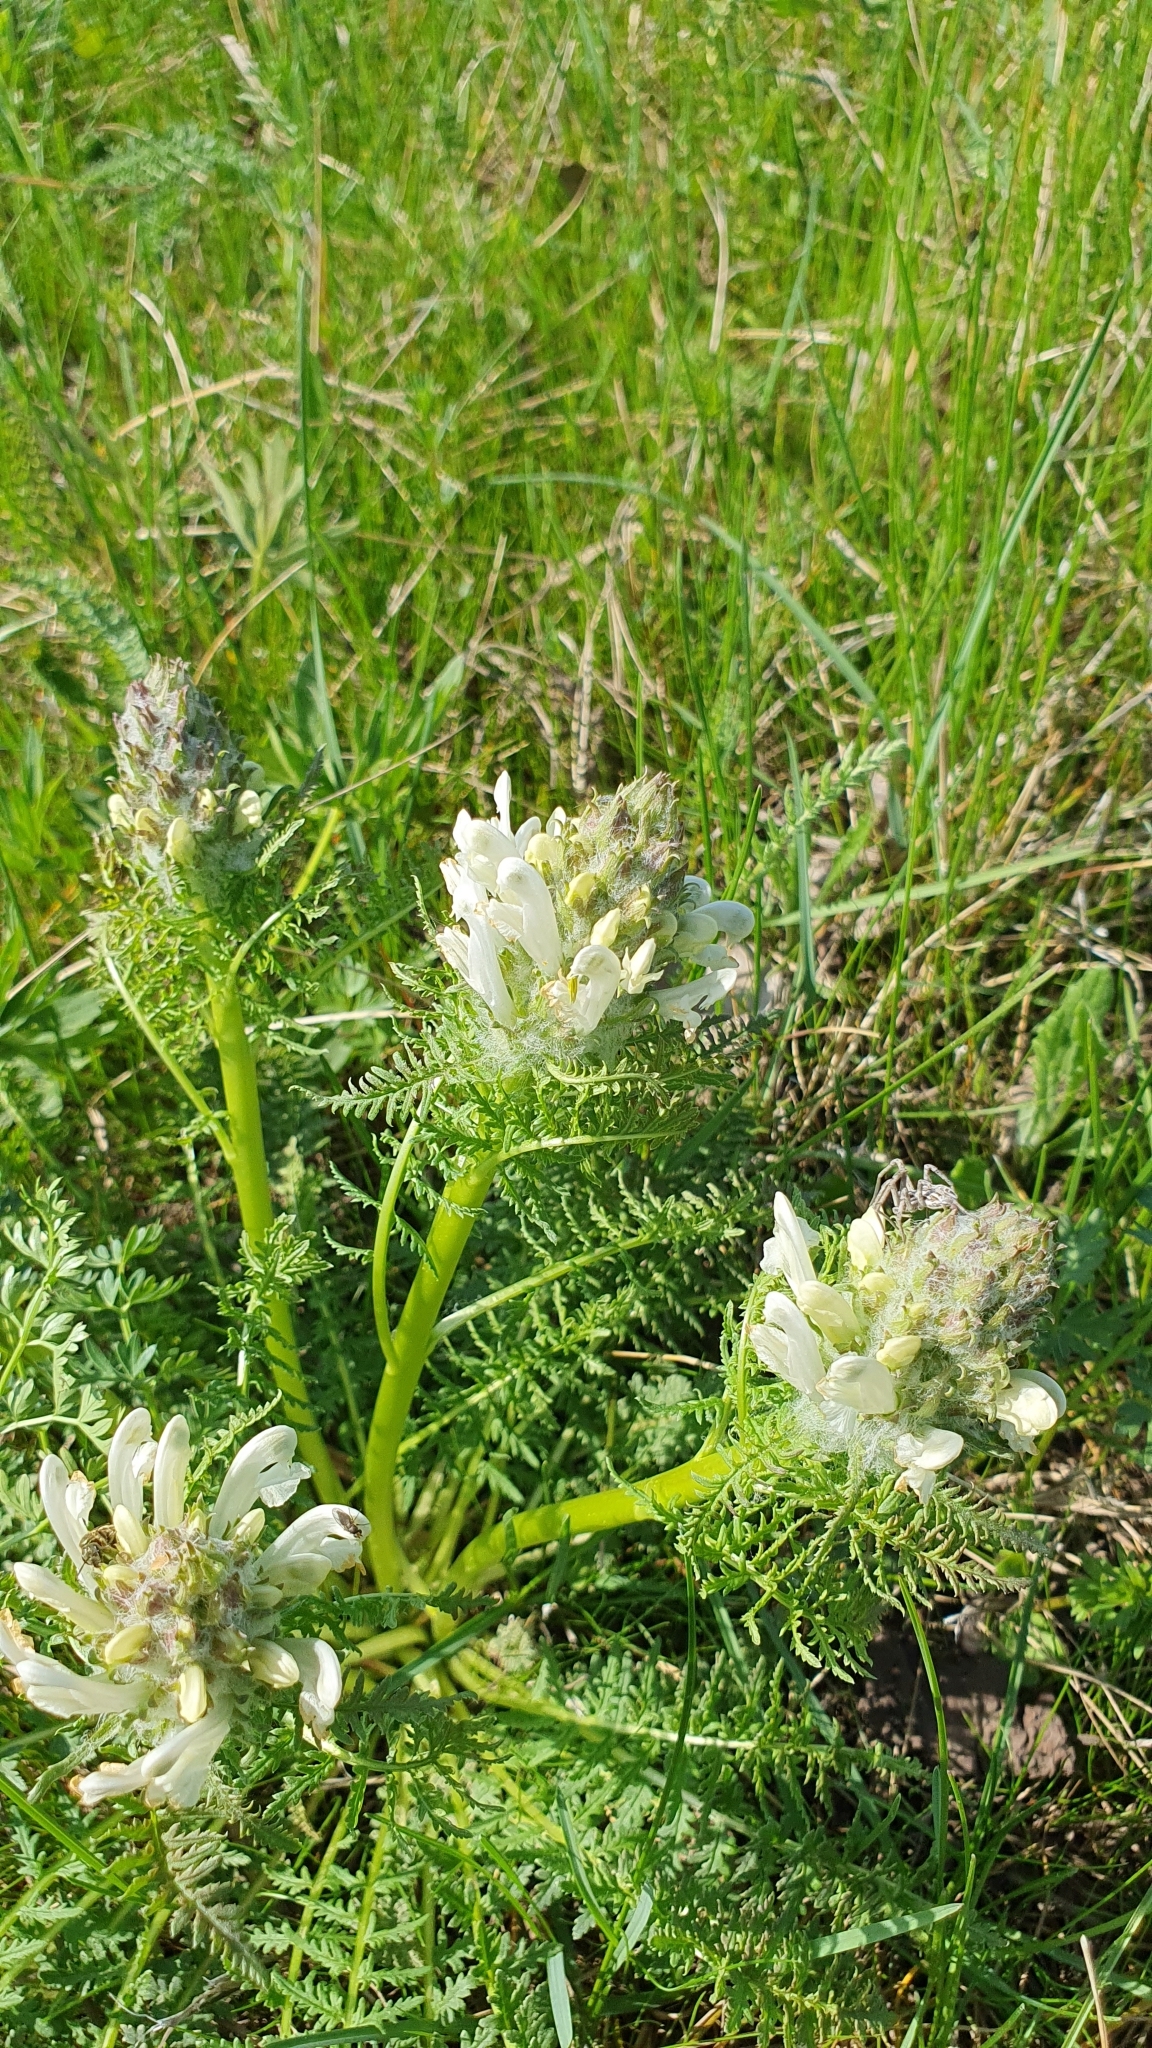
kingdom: Plantae
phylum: Tracheophyta
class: Magnoliopsida
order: Lamiales
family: Orobanchaceae
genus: Pedicularis
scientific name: Pedicularis dasystachys
